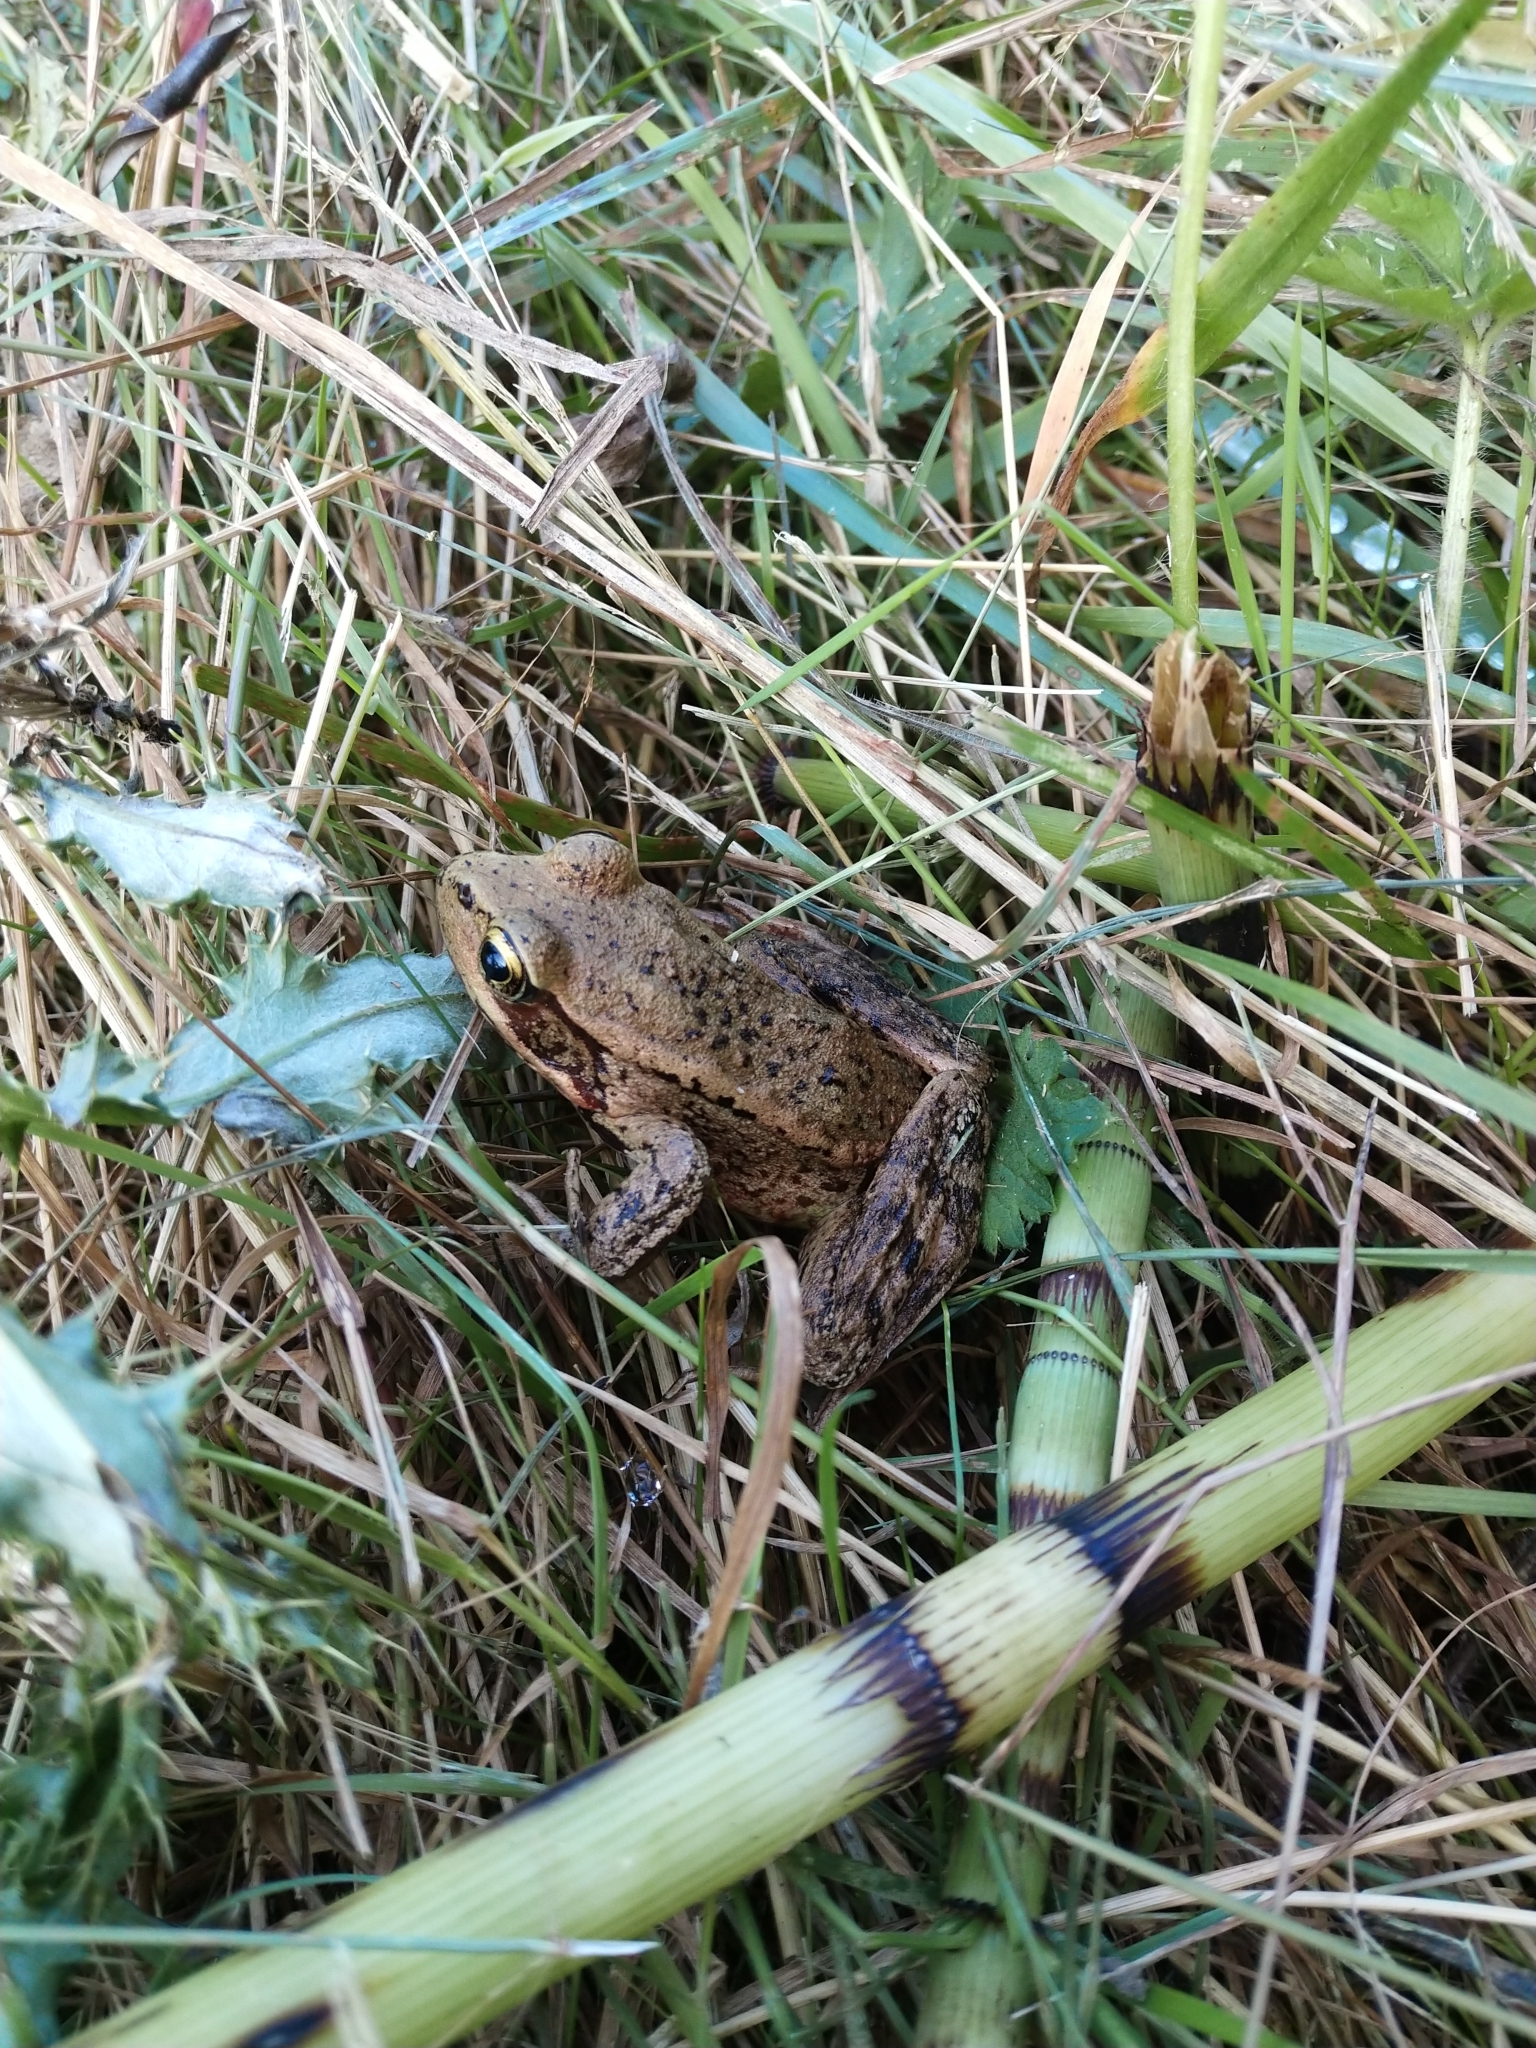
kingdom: Animalia
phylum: Chordata
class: Amphibia
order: Anura
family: Ranidae
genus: Rana
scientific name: Rana aurora
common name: Red-legged frog
